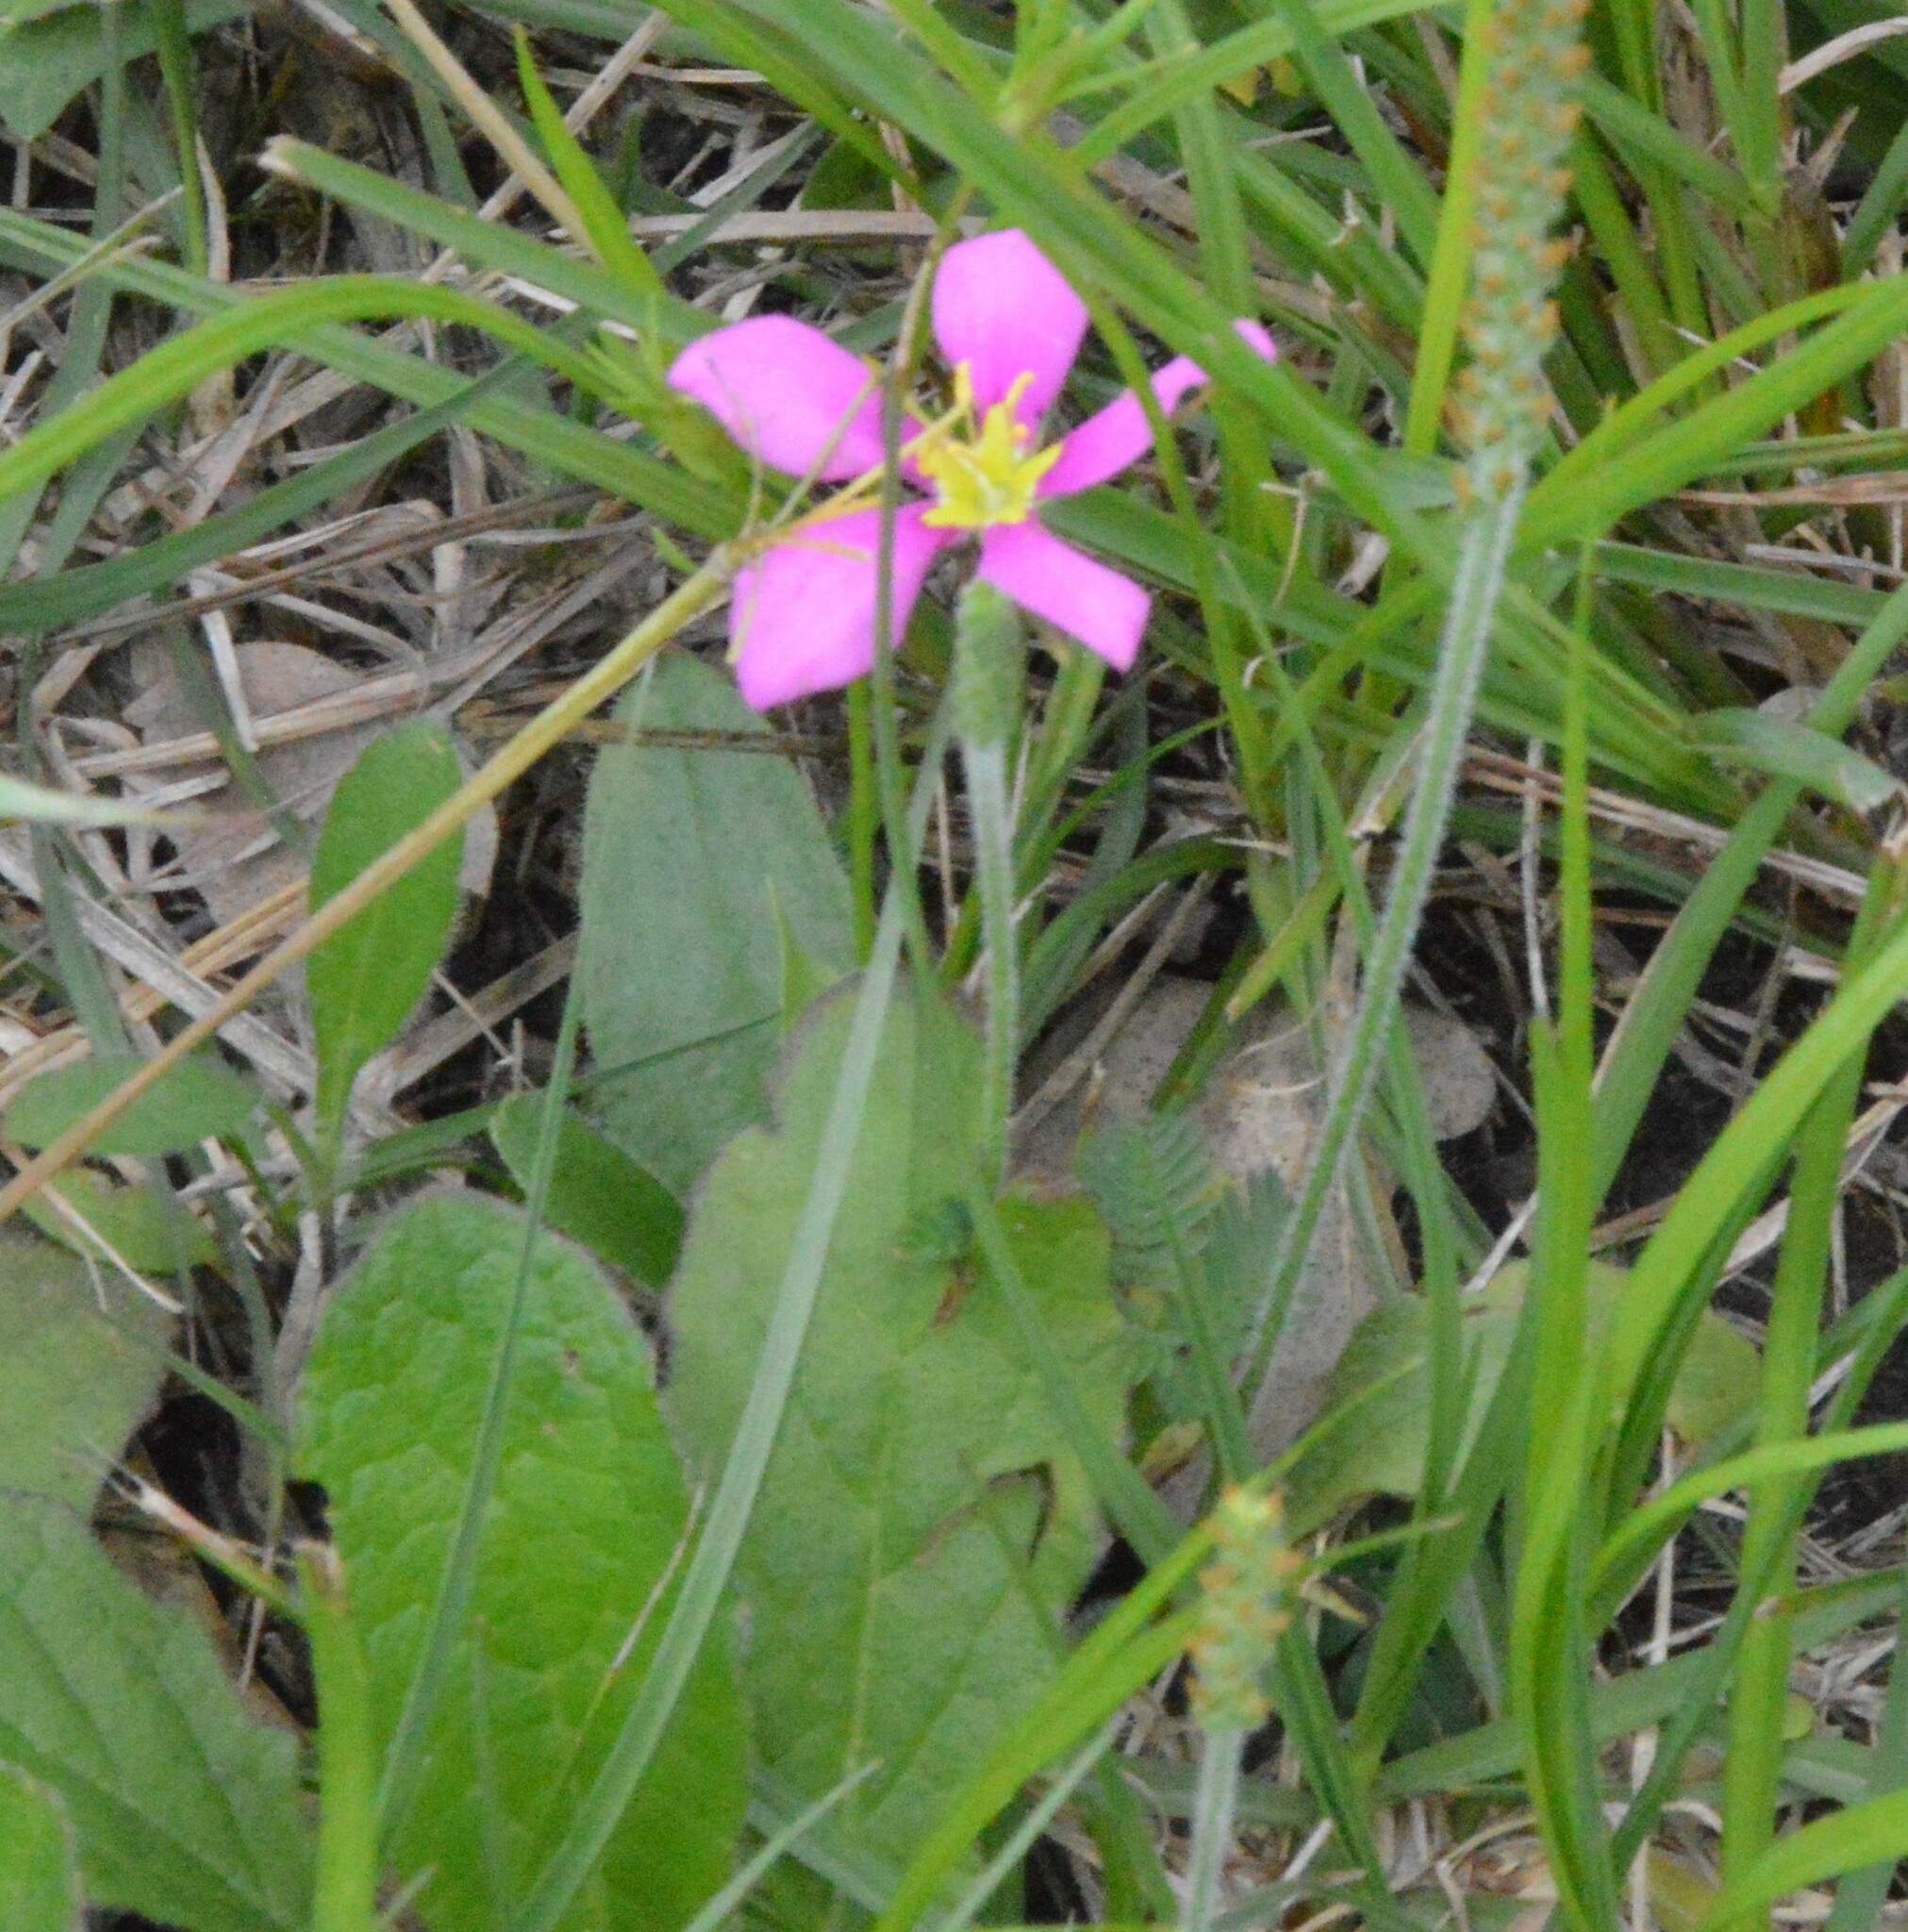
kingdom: Plantae
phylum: Tracheophyta
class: Magnoliopsida
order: Gentianales
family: Gentianaceae
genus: Sabatia
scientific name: Sabatia campestris
